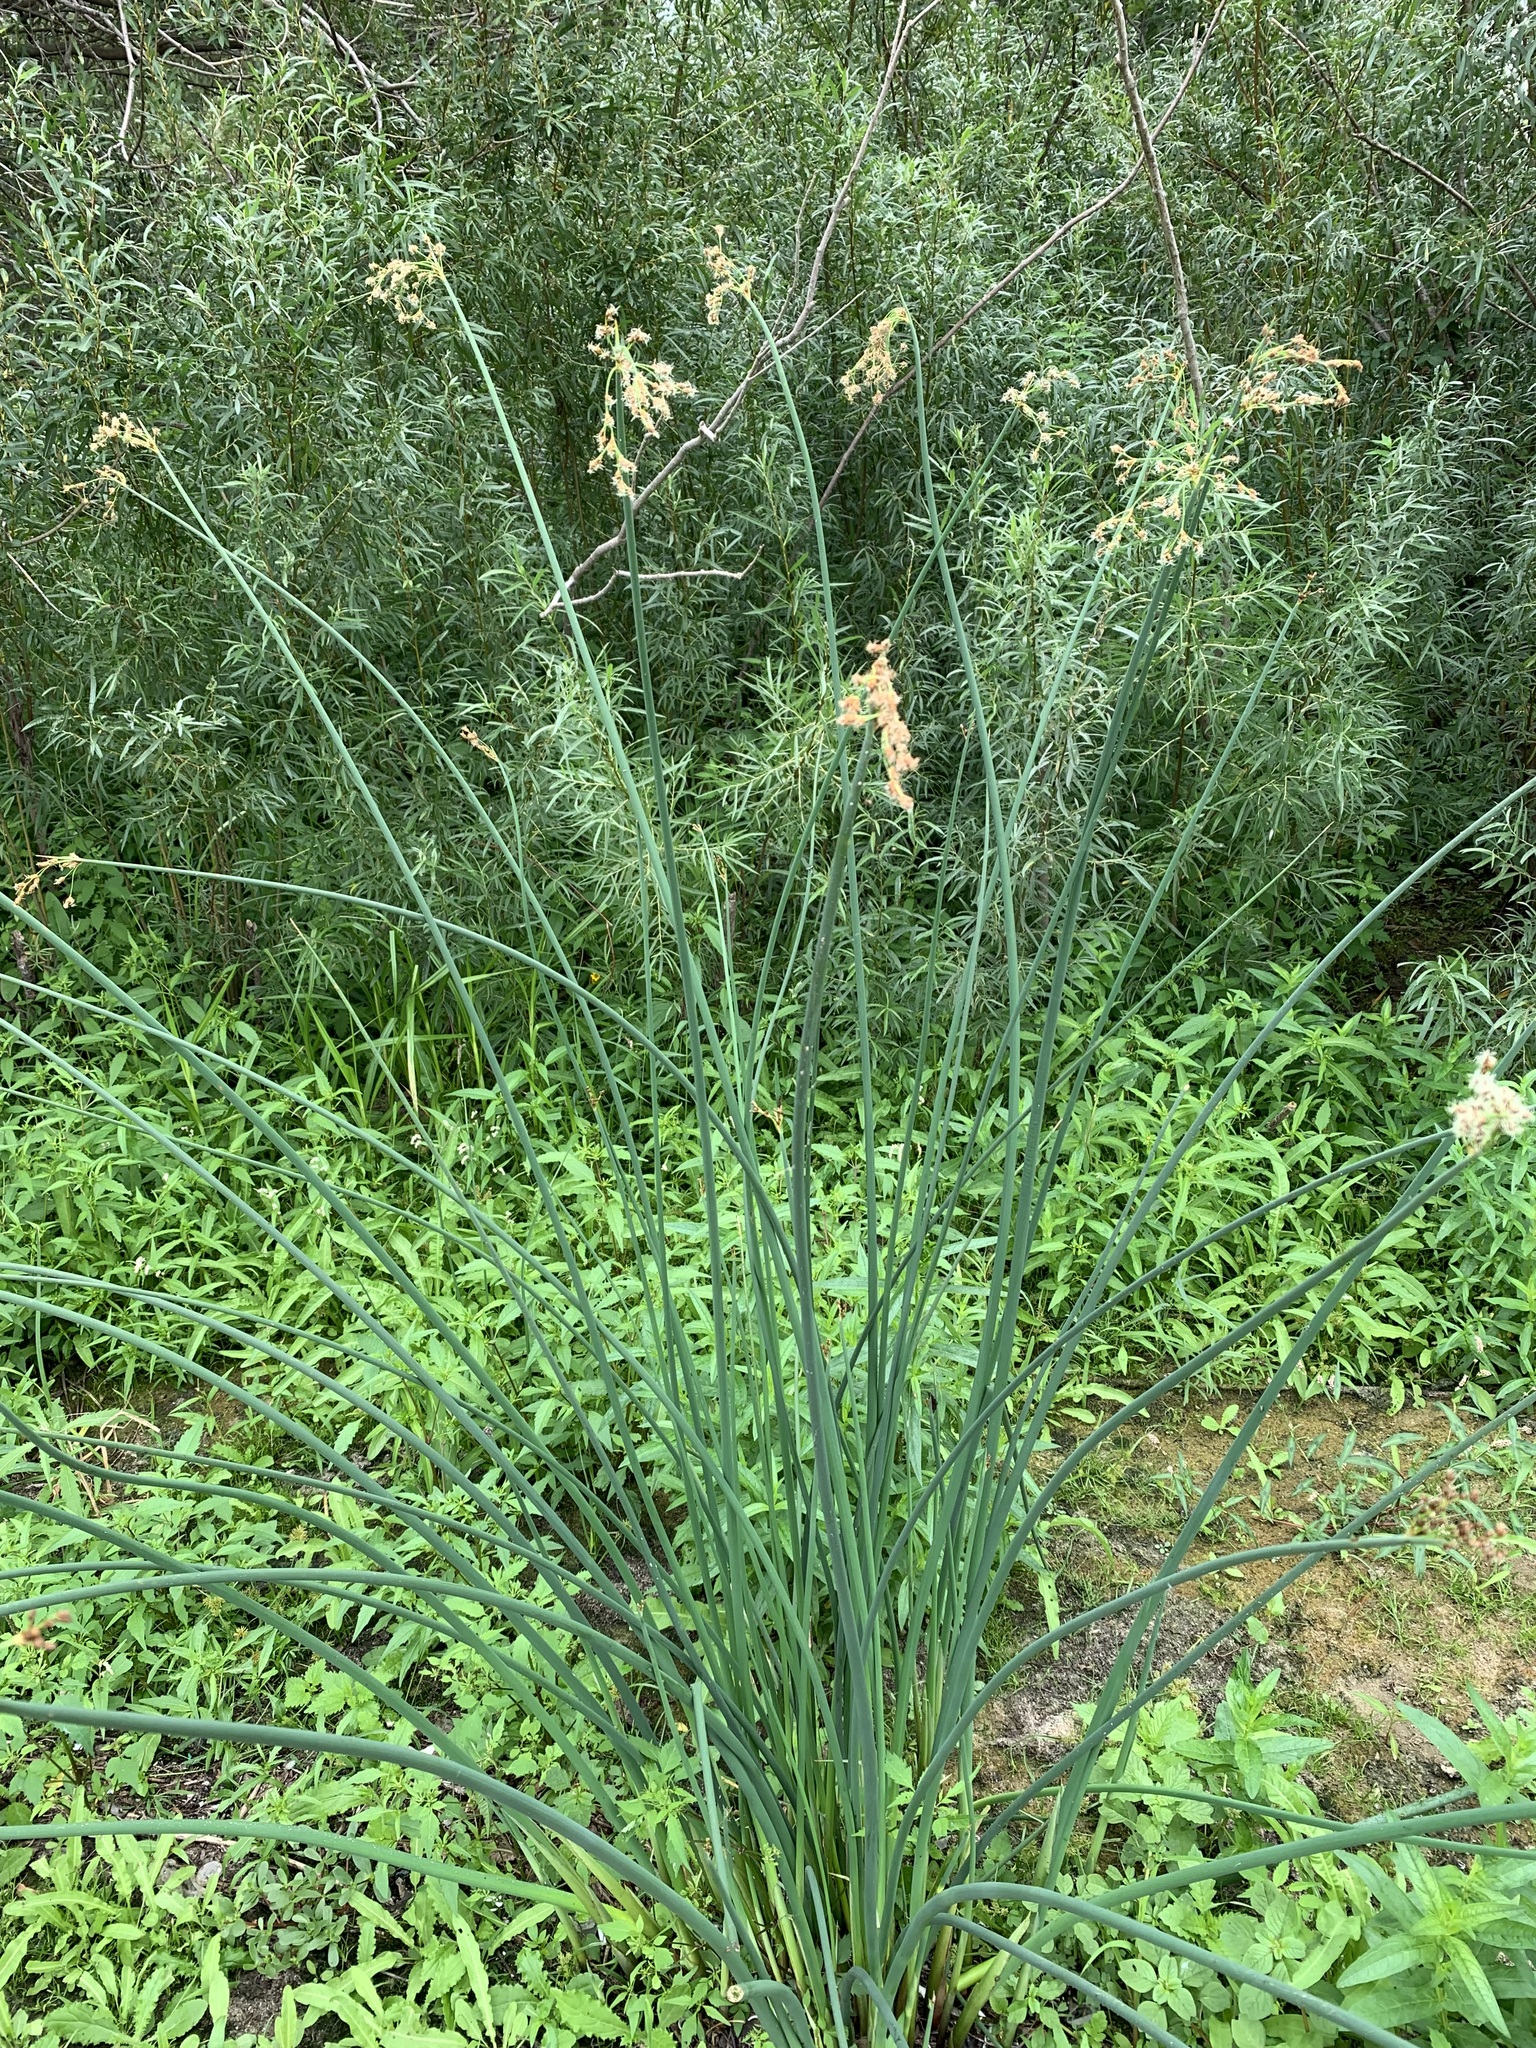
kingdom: Plantae
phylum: Tracheophyta
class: Liliopsida
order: Poales
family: Cyperaceae
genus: Schoenoplectus
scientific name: Schoenoplectus tabernaemontani
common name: Grey club-rush
